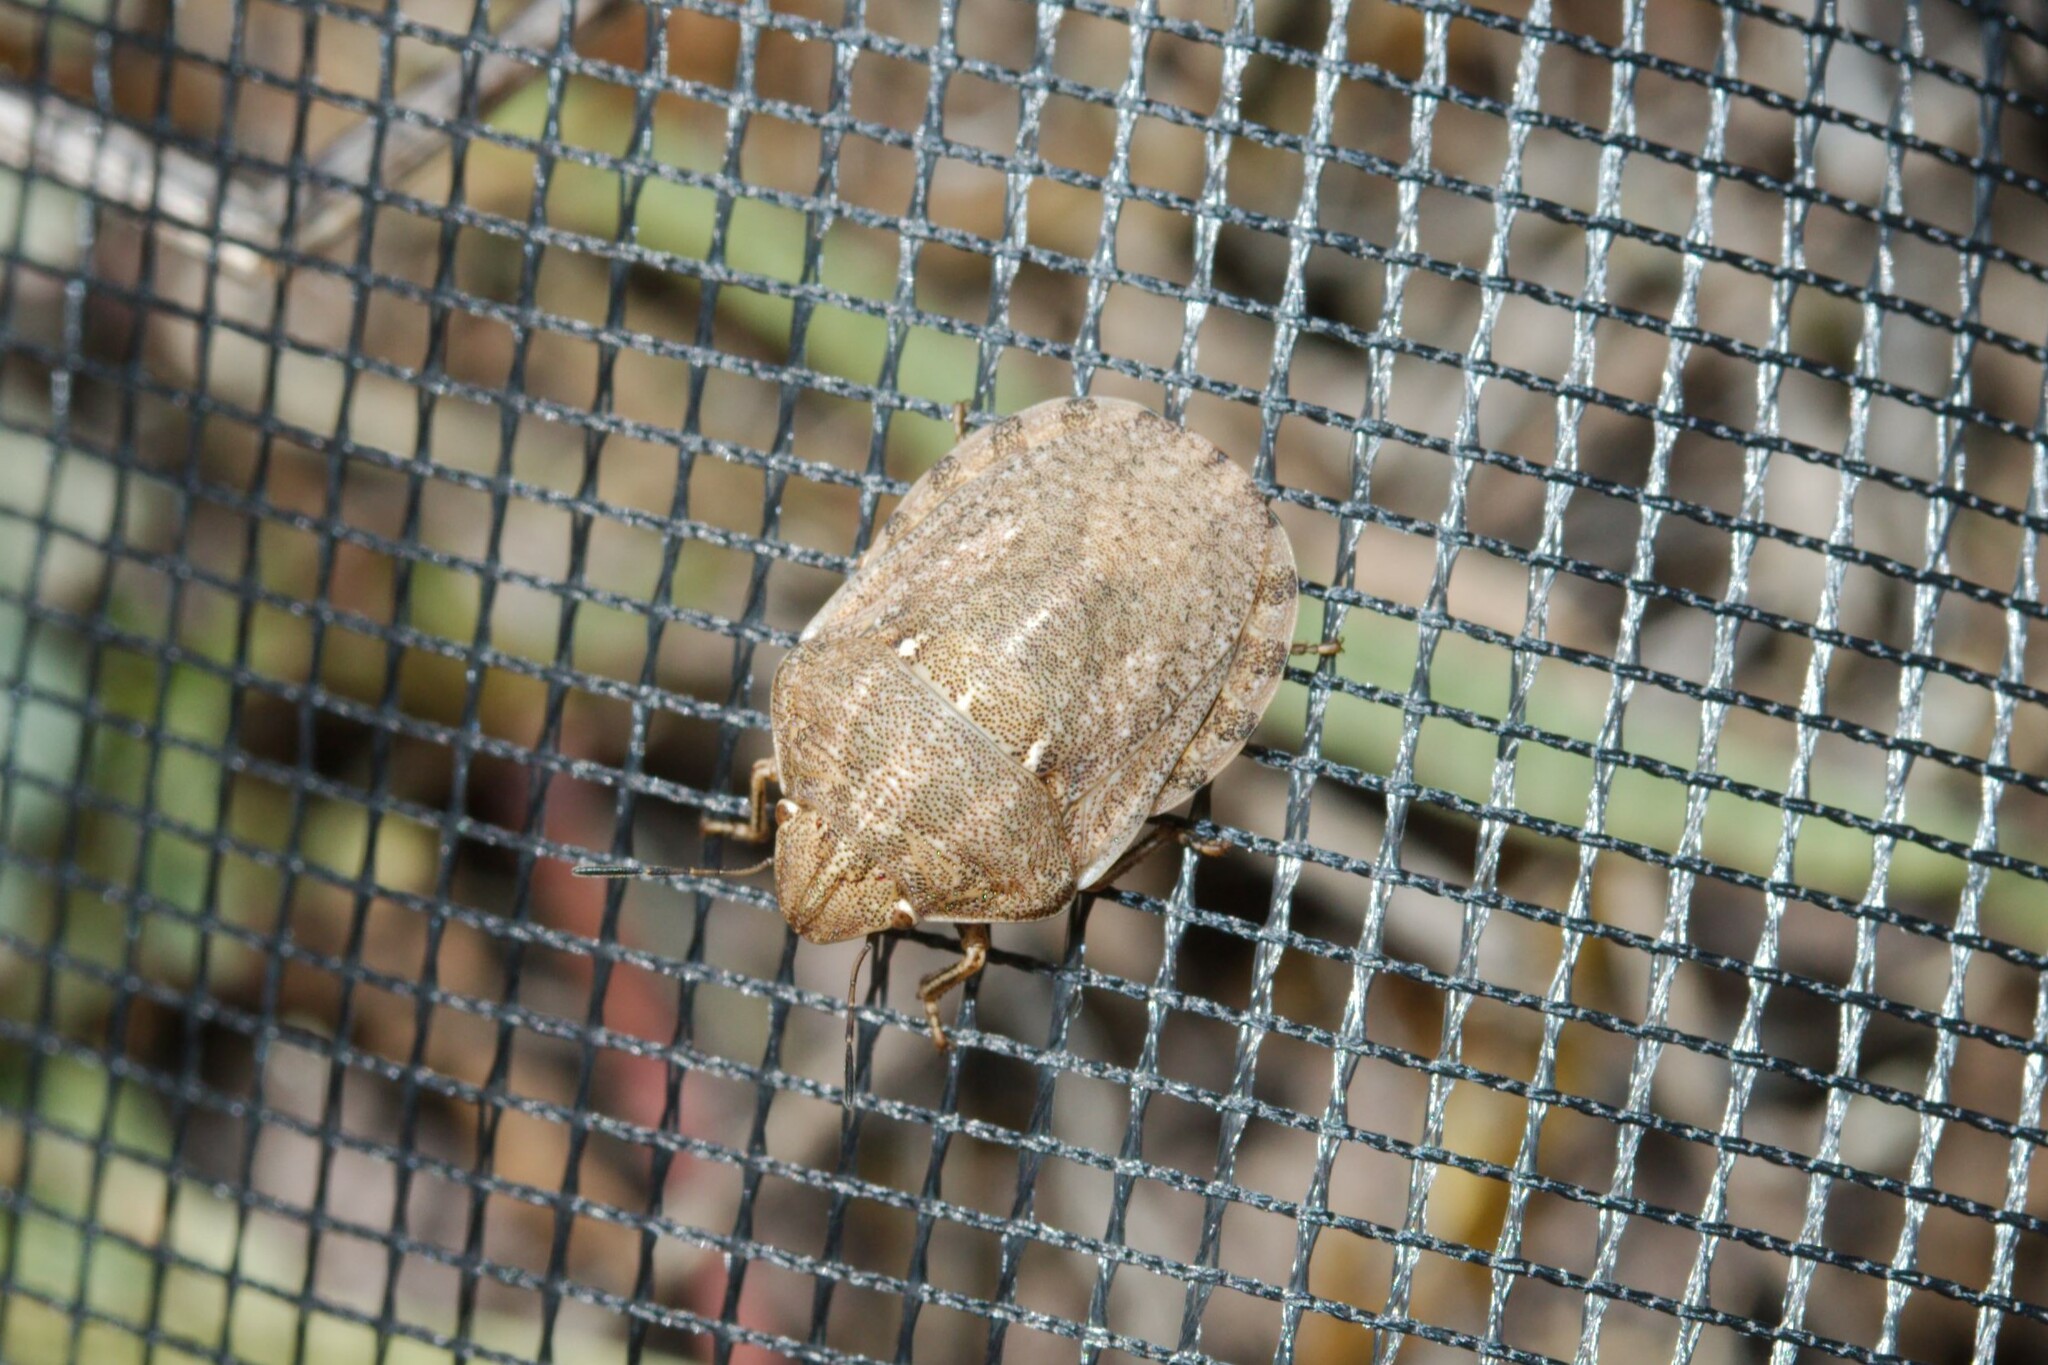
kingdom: Animalia
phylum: Arthropoda
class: Insecta
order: Hemiptera
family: Scutelleridae
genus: Eurygaster
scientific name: Eurygaster maura
